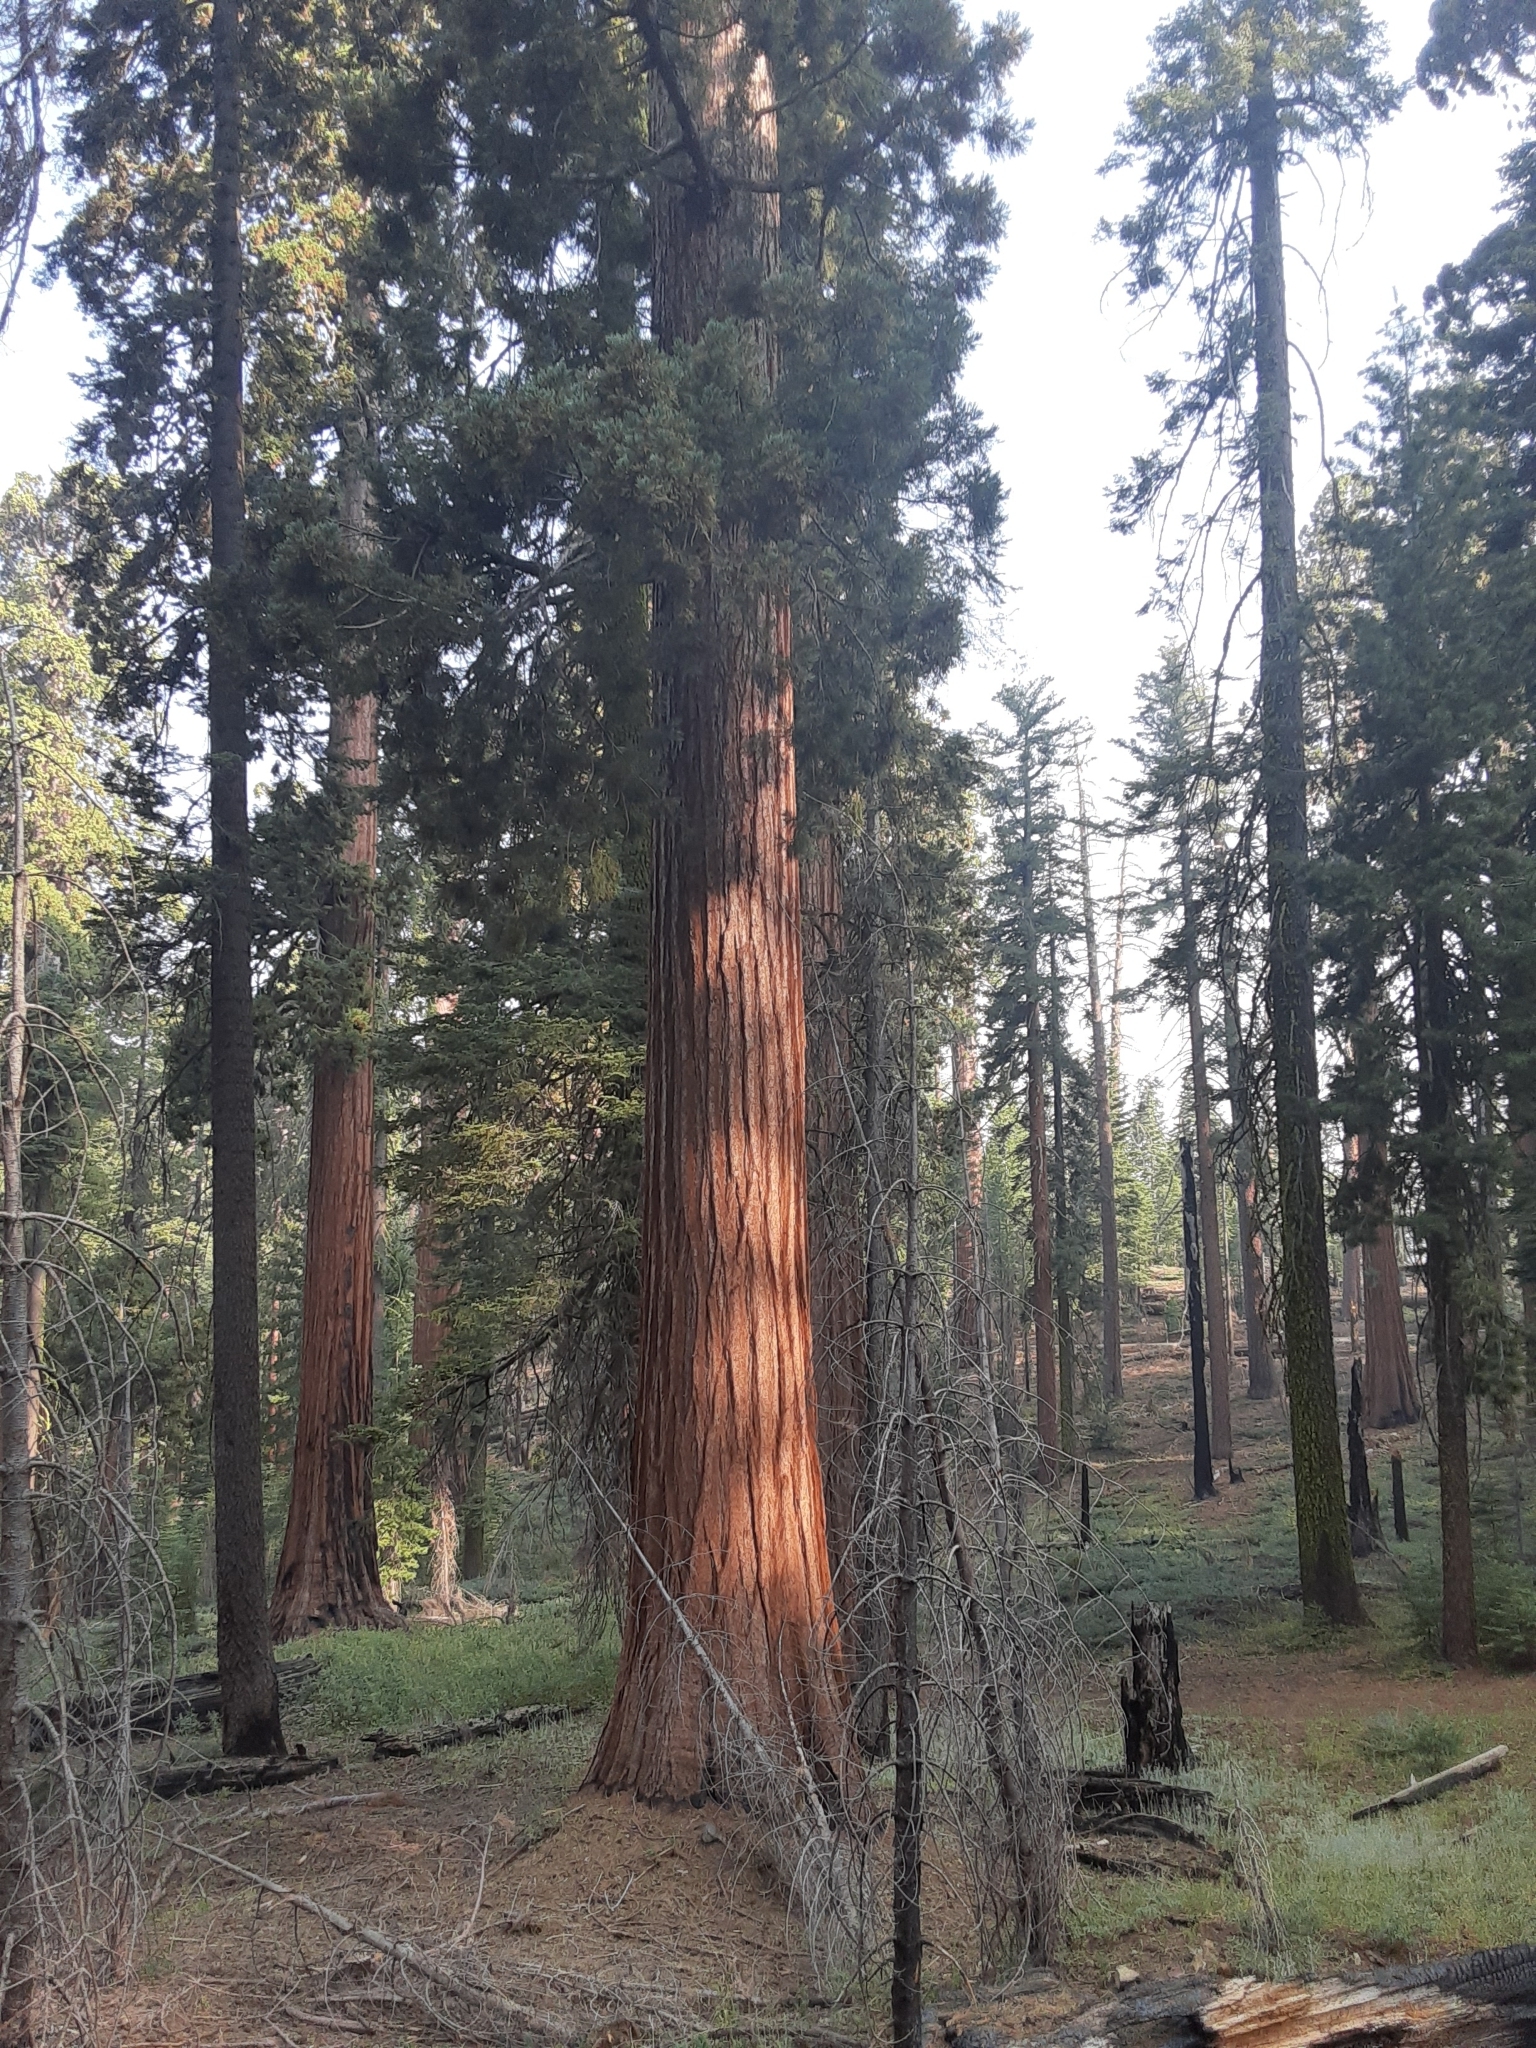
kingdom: Plantae
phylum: Tracheophyta
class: Pinopsida
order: Pinales
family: Cupressaceae
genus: Sequoiadendron
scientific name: Sequoiadendron giganteum
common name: Wellingtonia
